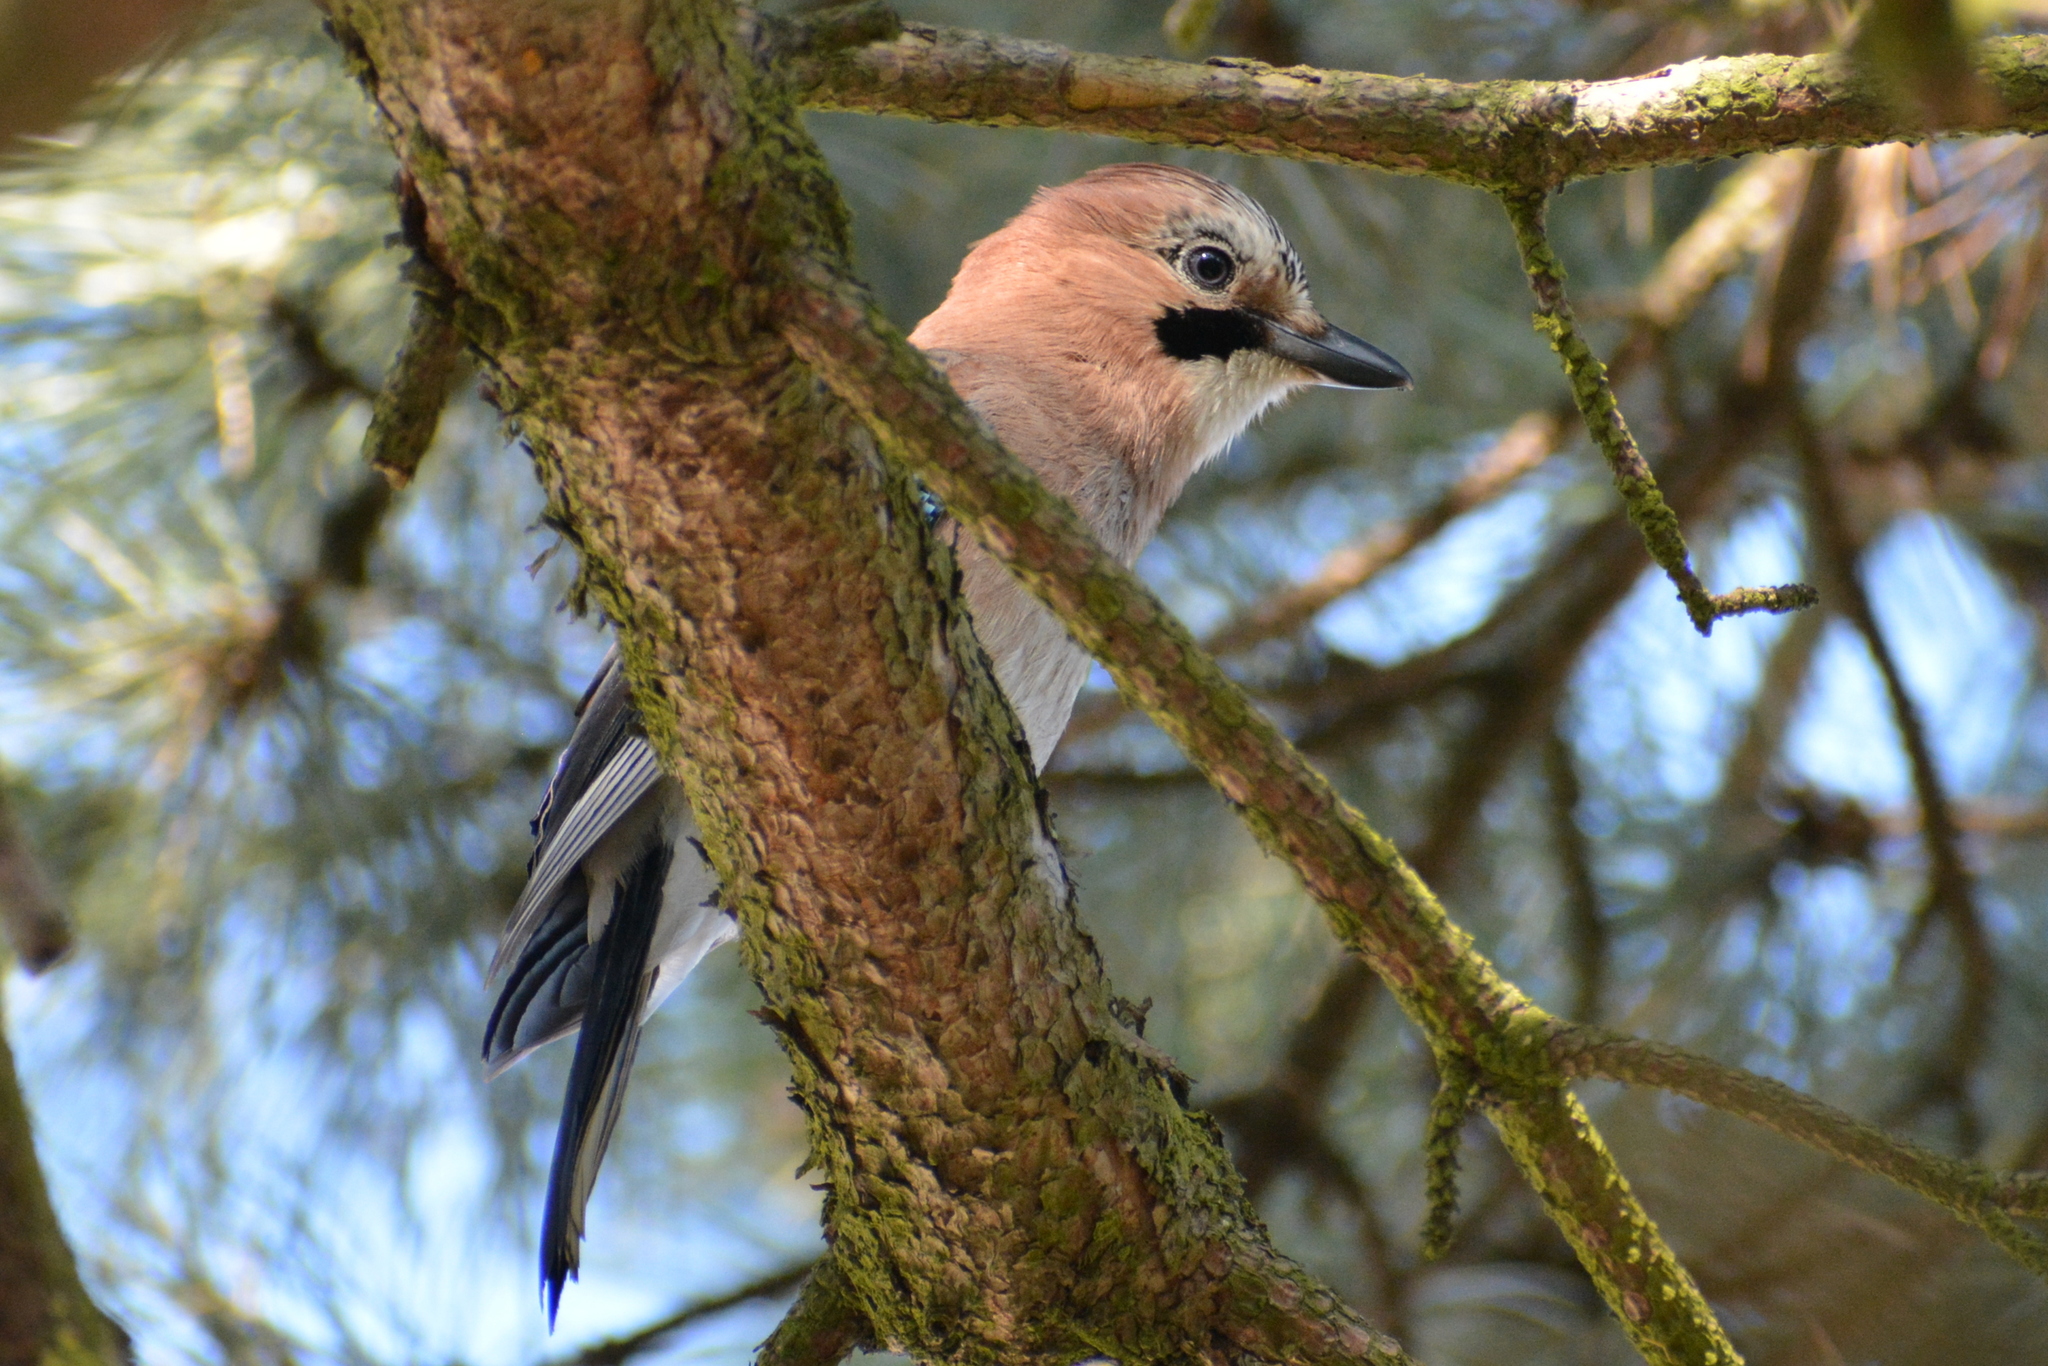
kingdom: Animalia
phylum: Chordata
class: Aves
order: Passeriformes
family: Corvidae
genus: Garrulus
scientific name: Garrulus glandarius
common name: Eurasian jay
